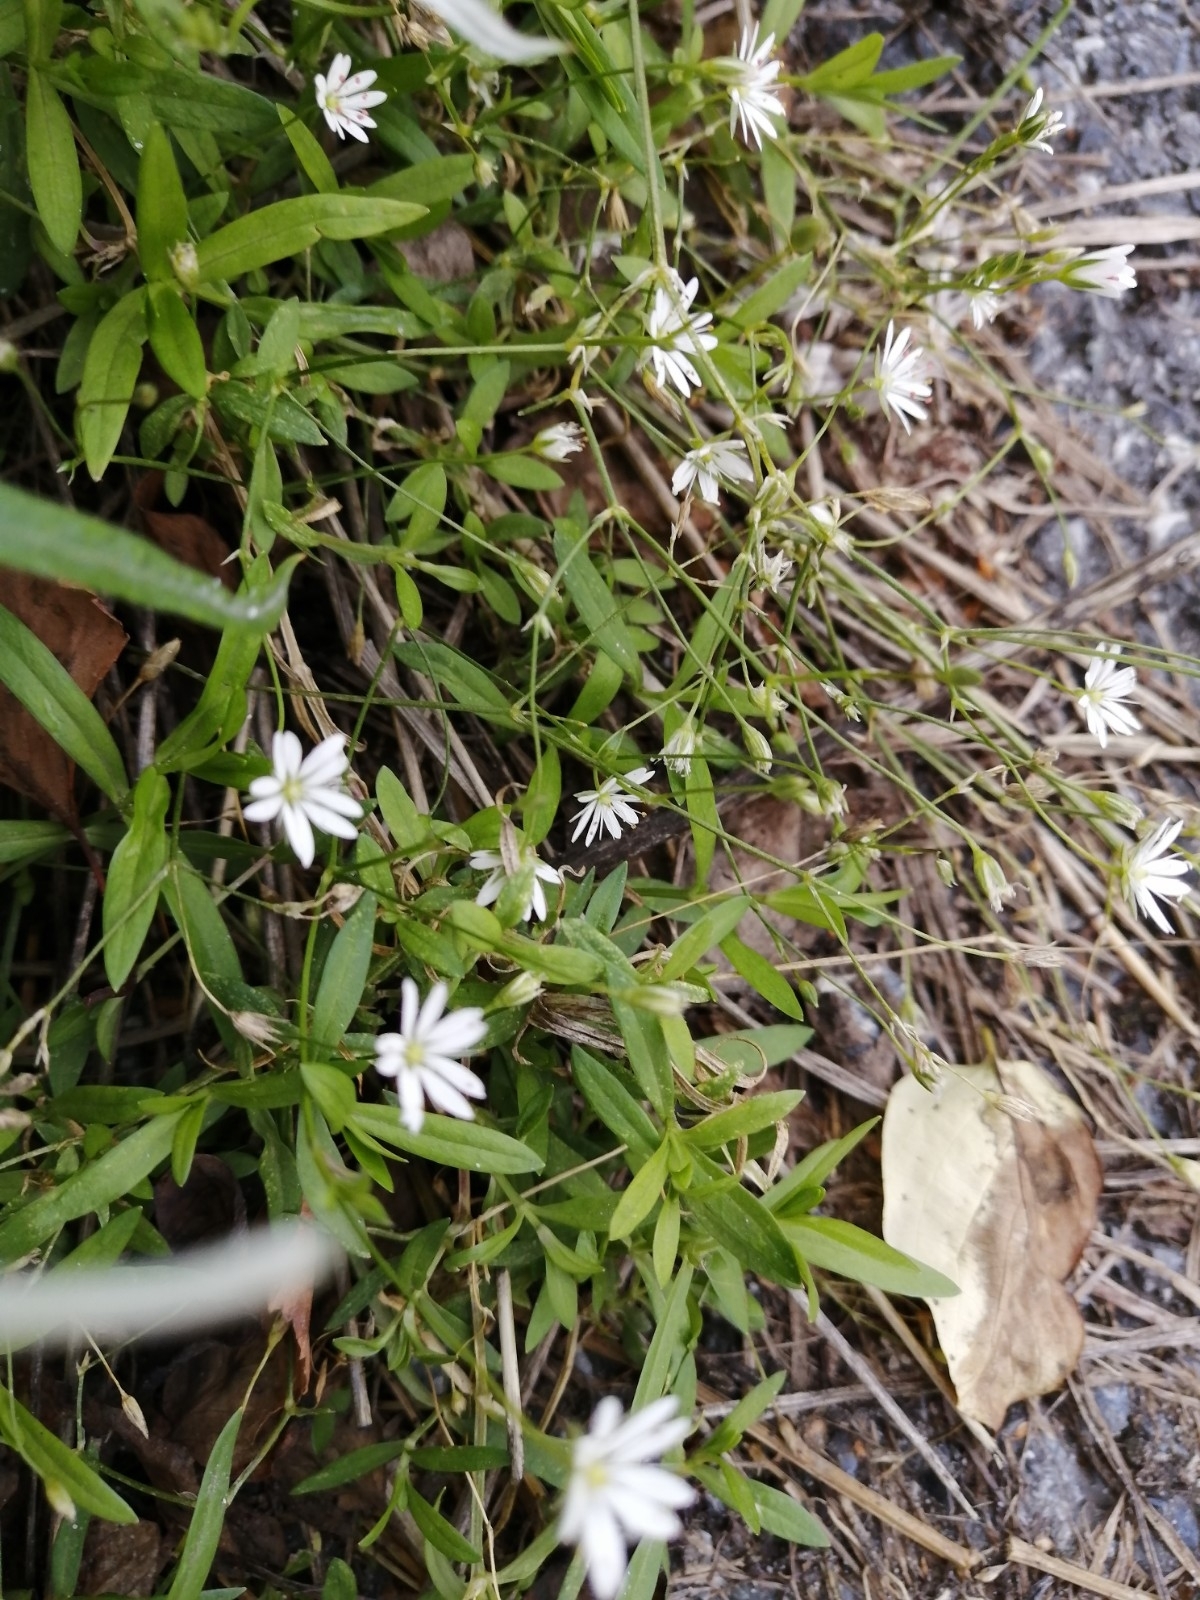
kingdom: Plantae
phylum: Tracheophyta
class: Magnoliopsida
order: Caryophyllales
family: Caryophyllaceae
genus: Stellaria
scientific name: Stellaria graminea
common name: Grass-like starwort
